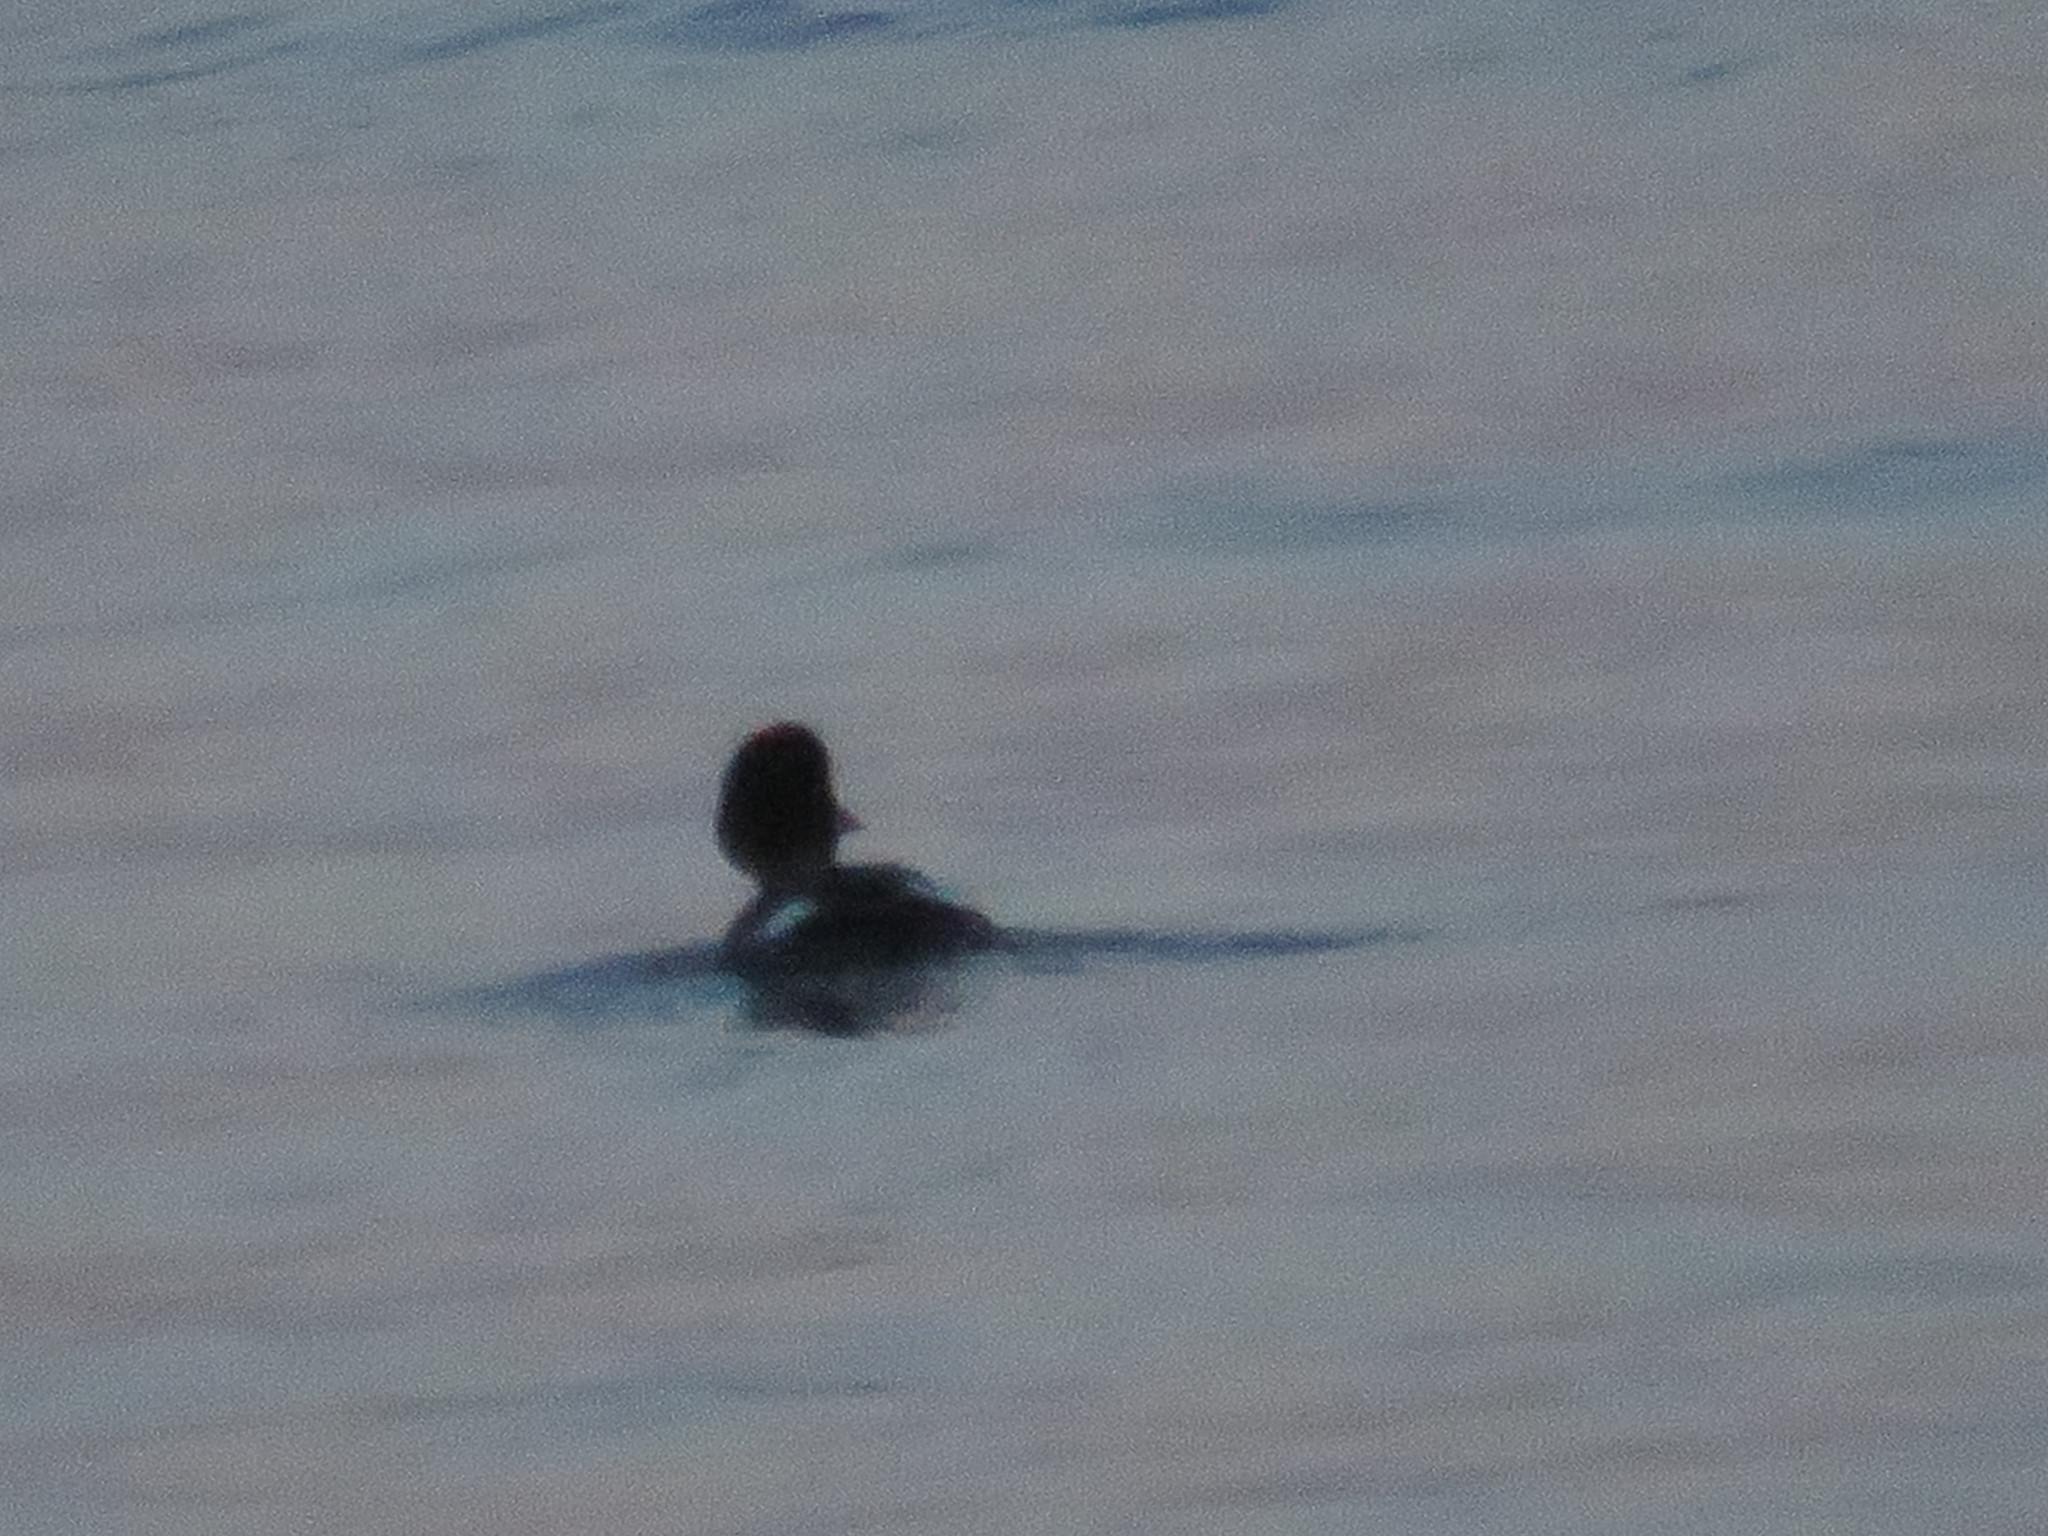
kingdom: Animalia
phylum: Chordata
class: Aves
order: Anseriformes
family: Anatidae
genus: Bucephala
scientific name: Bucephala clangula
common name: Common goldeneye
